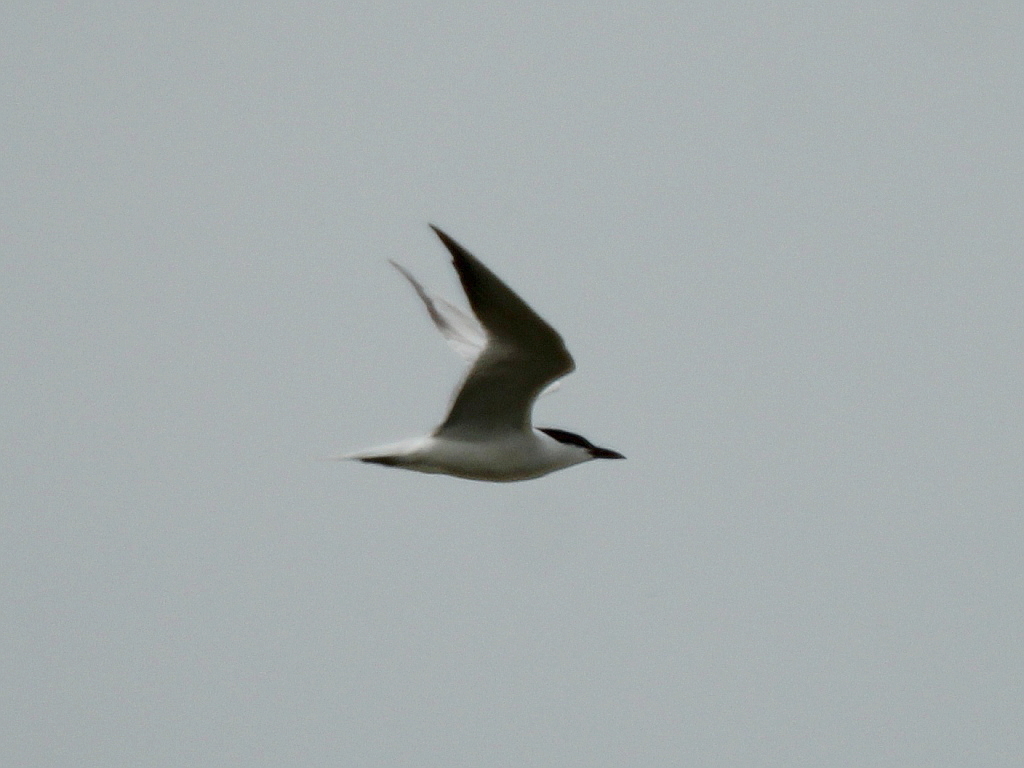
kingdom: Animalia
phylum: Chordata
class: Aves
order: Charadriiformes
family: Laridae
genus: Gelochelidon
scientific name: Gelochelidon nilotica
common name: Gull-billed tern
